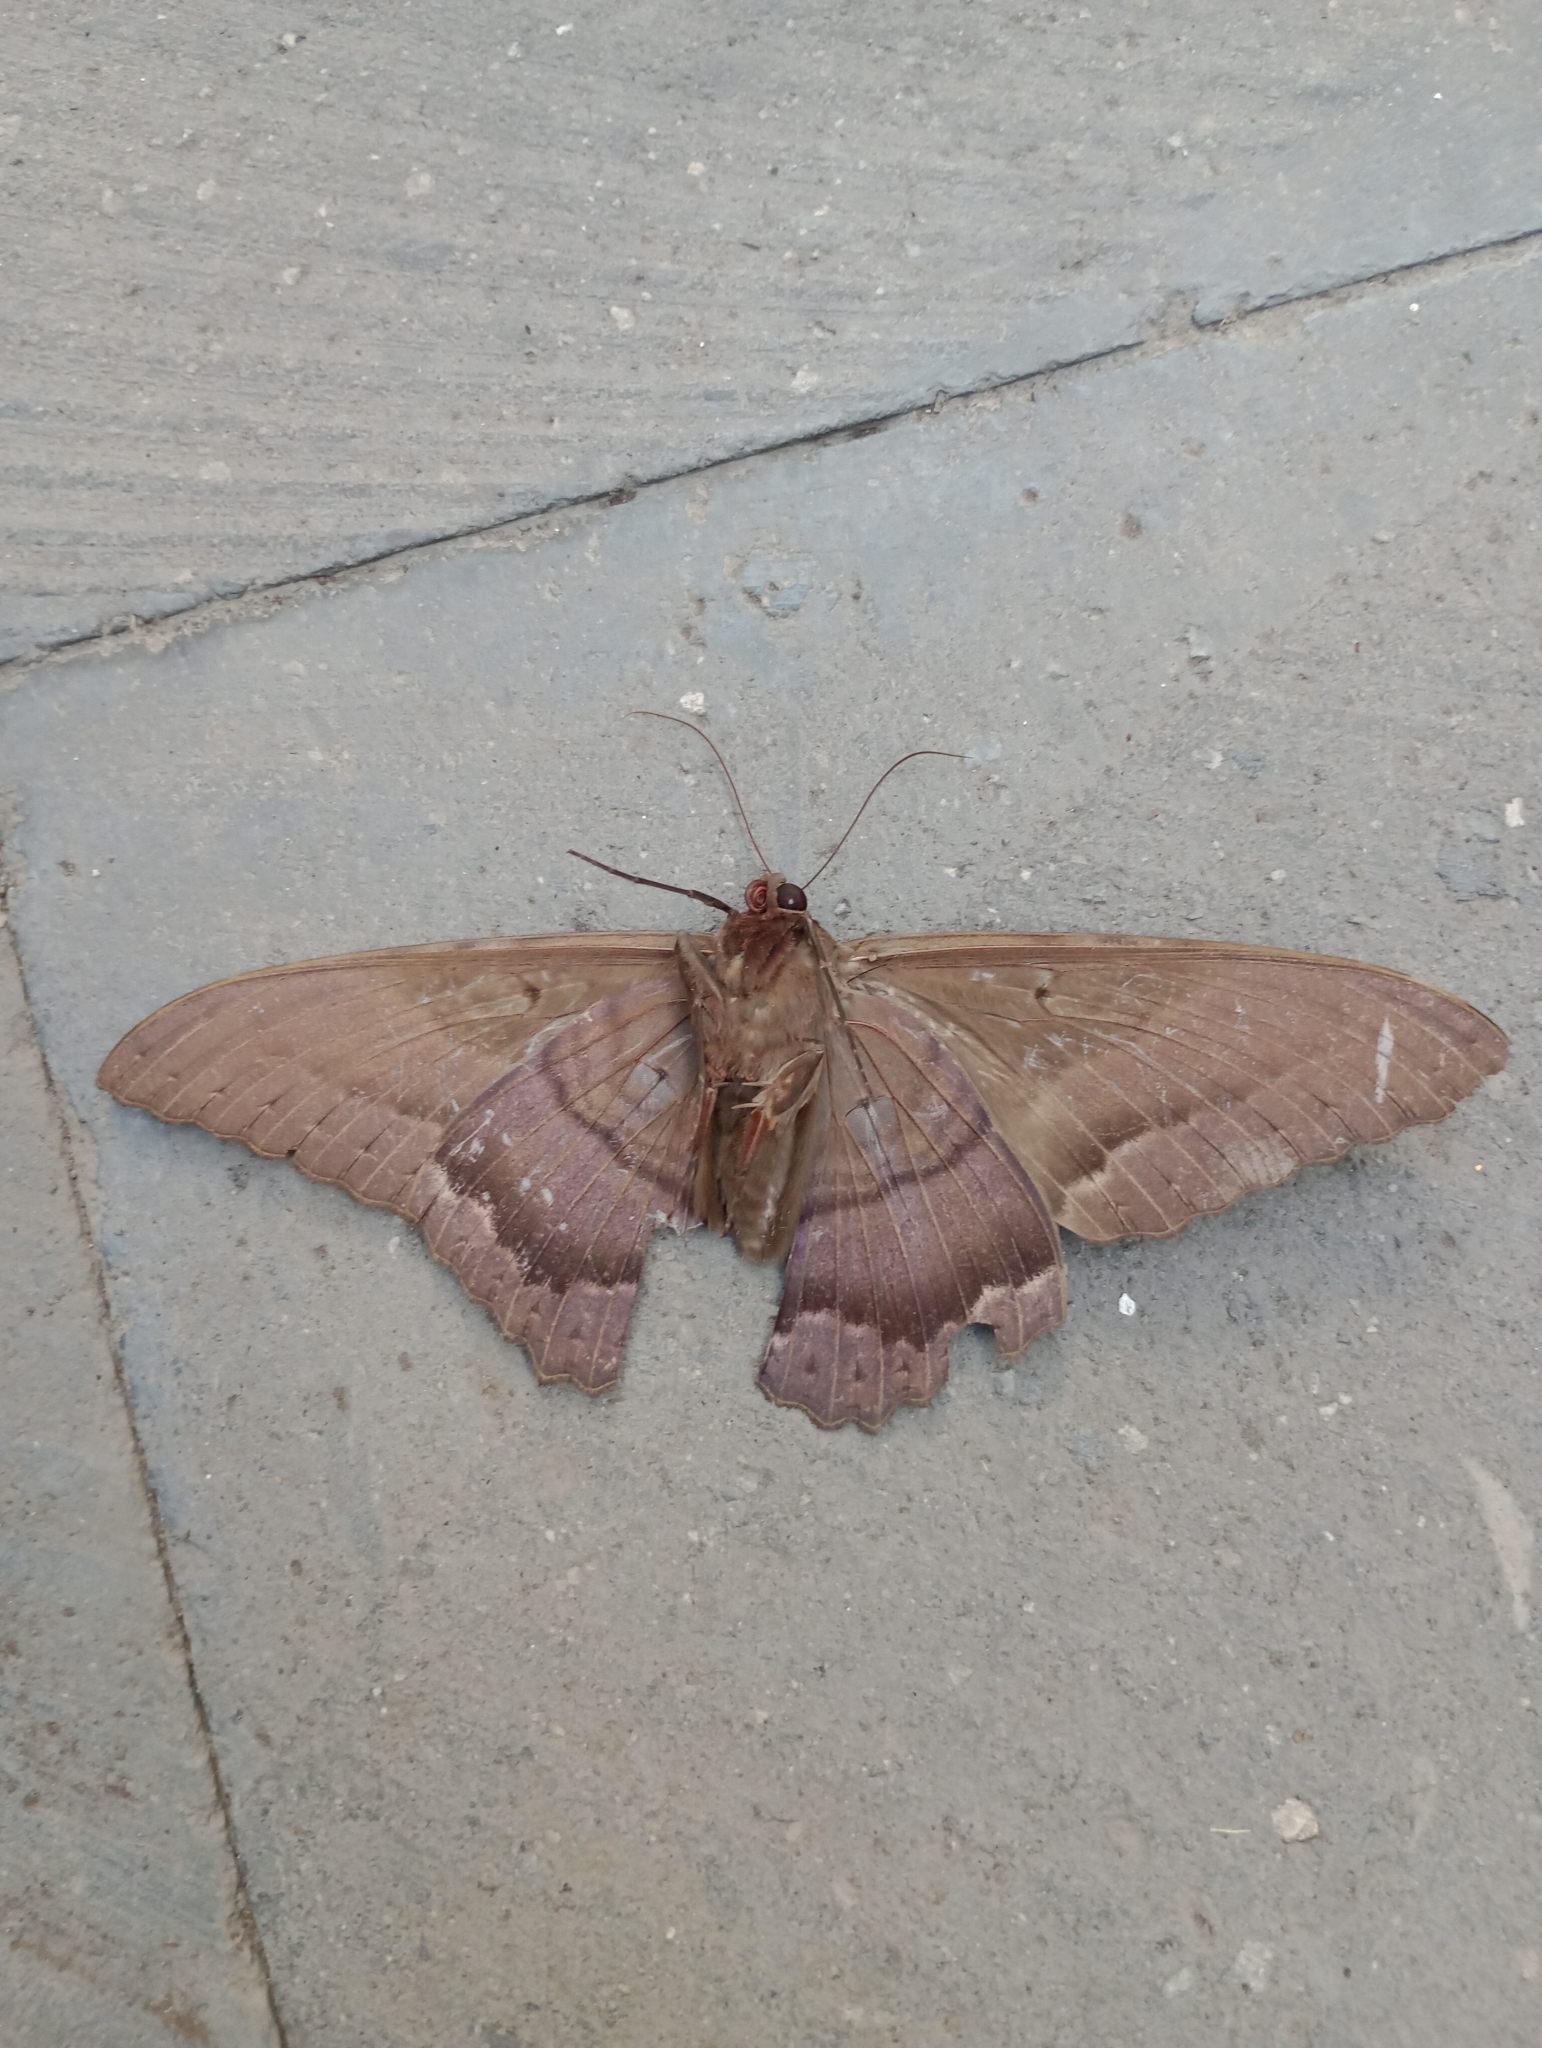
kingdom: Animalia
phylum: Arthropoda
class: Insecta
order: Lepidoptera
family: Erebidae
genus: Ascalapha
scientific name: Ascalapha odorata
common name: Black witch
